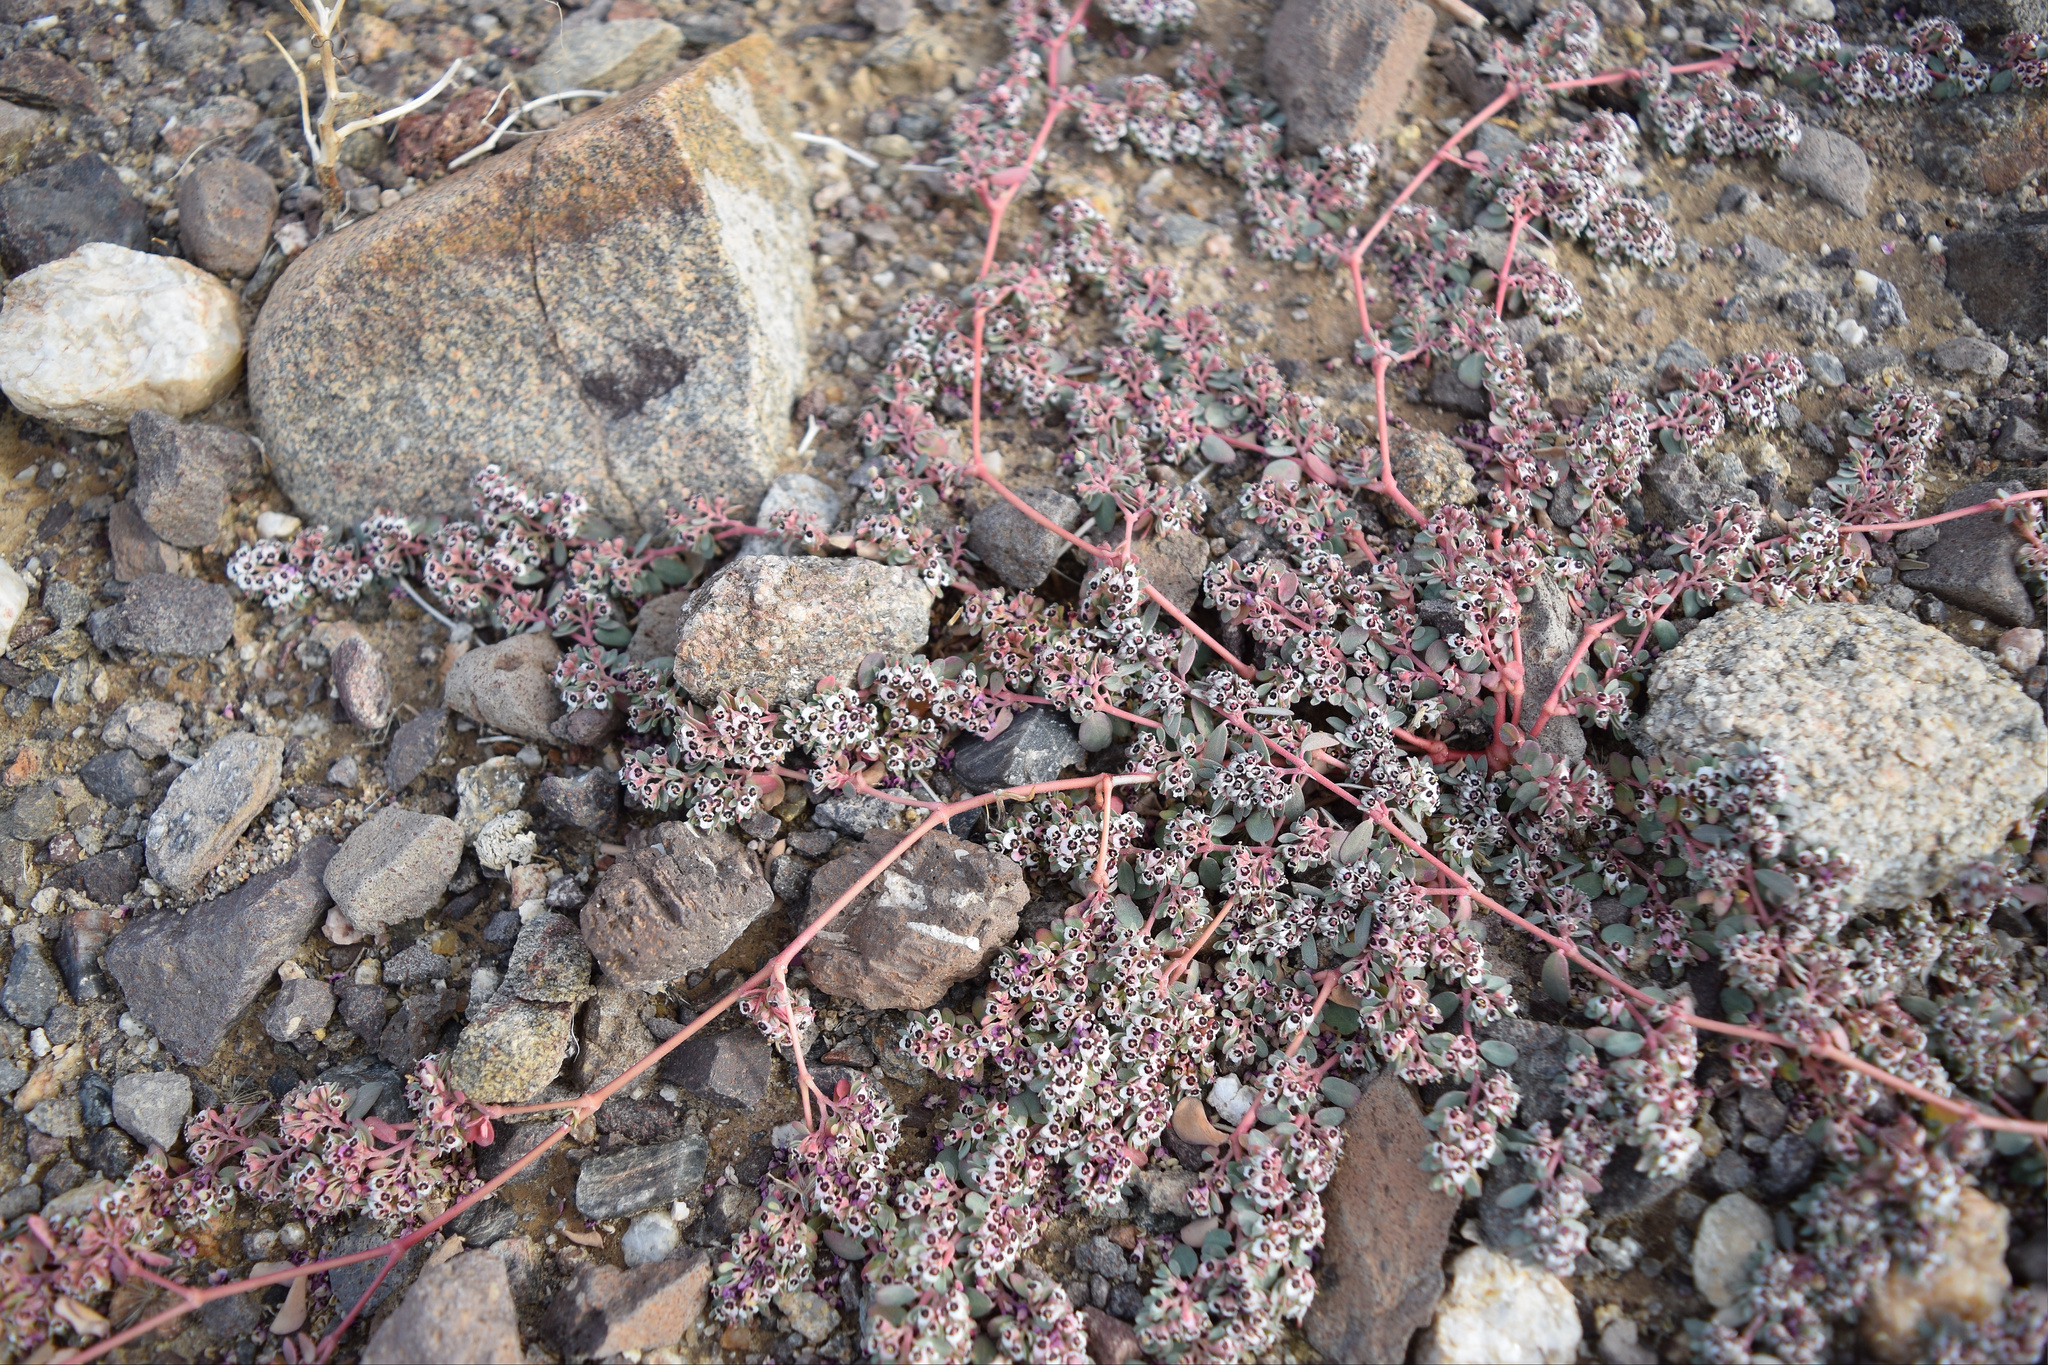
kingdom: Plantae
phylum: Tracheophyta
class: Magnoliopsida
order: Malpighiales
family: Euphorbiaceae
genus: Euphorbia
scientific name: Euphorbia pediculifera
